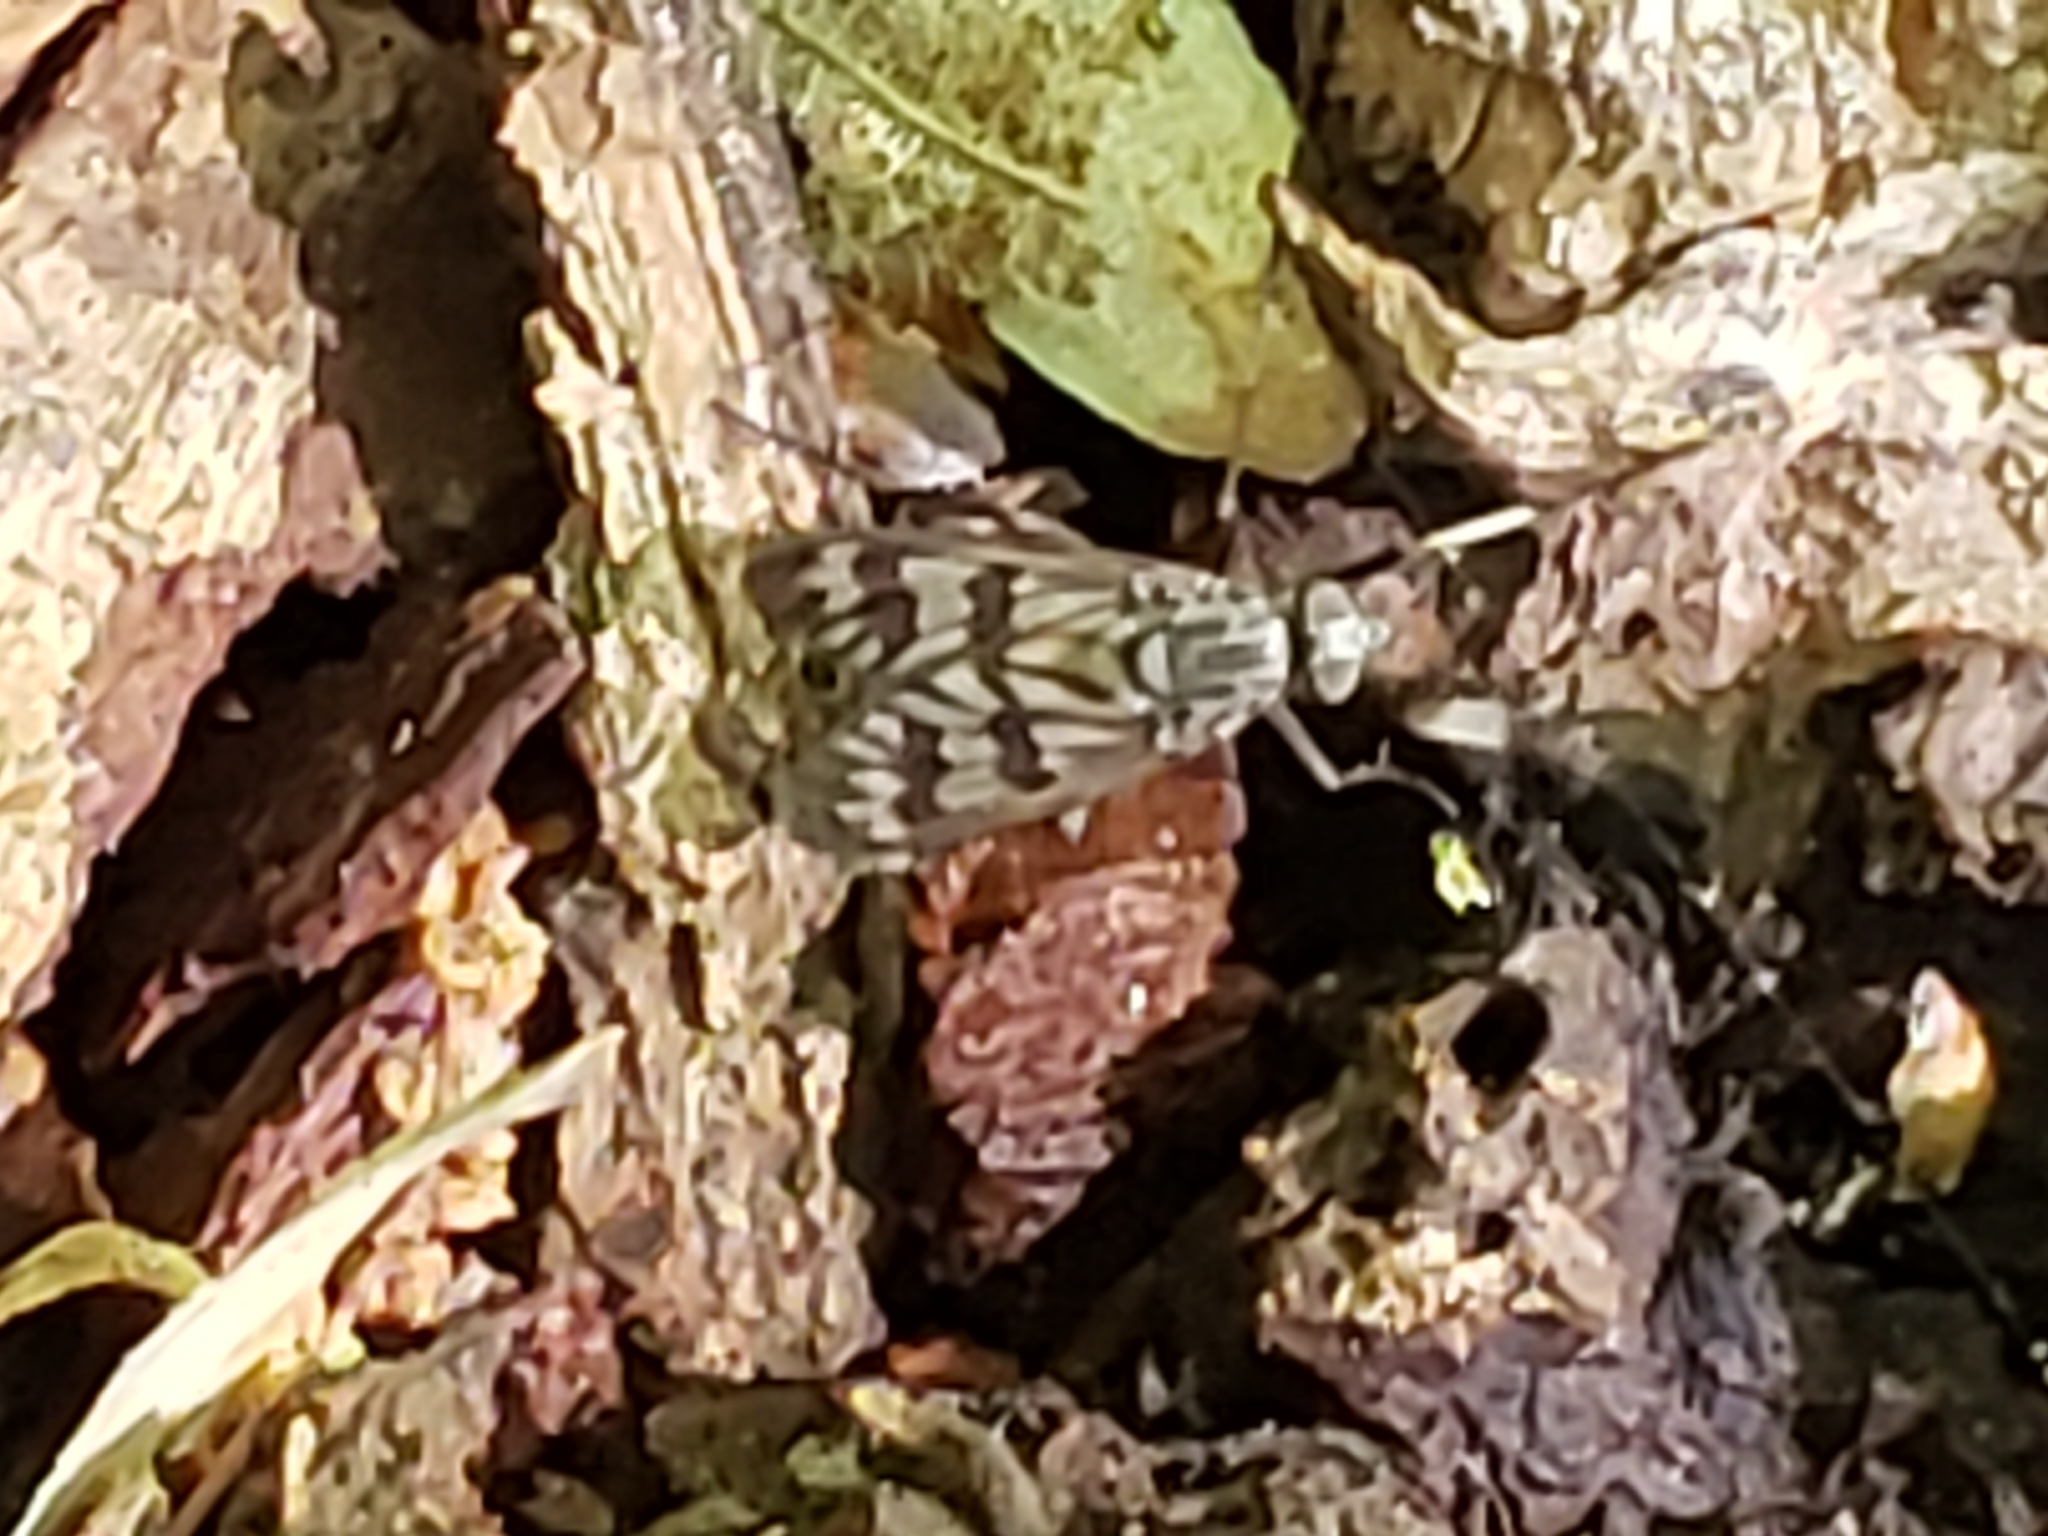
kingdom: Animalia
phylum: Arthropoda
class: Insecta
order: Diptera
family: Rhagionidae
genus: Rhagio
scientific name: Rhagio mystaceus
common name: Common snipe fly
